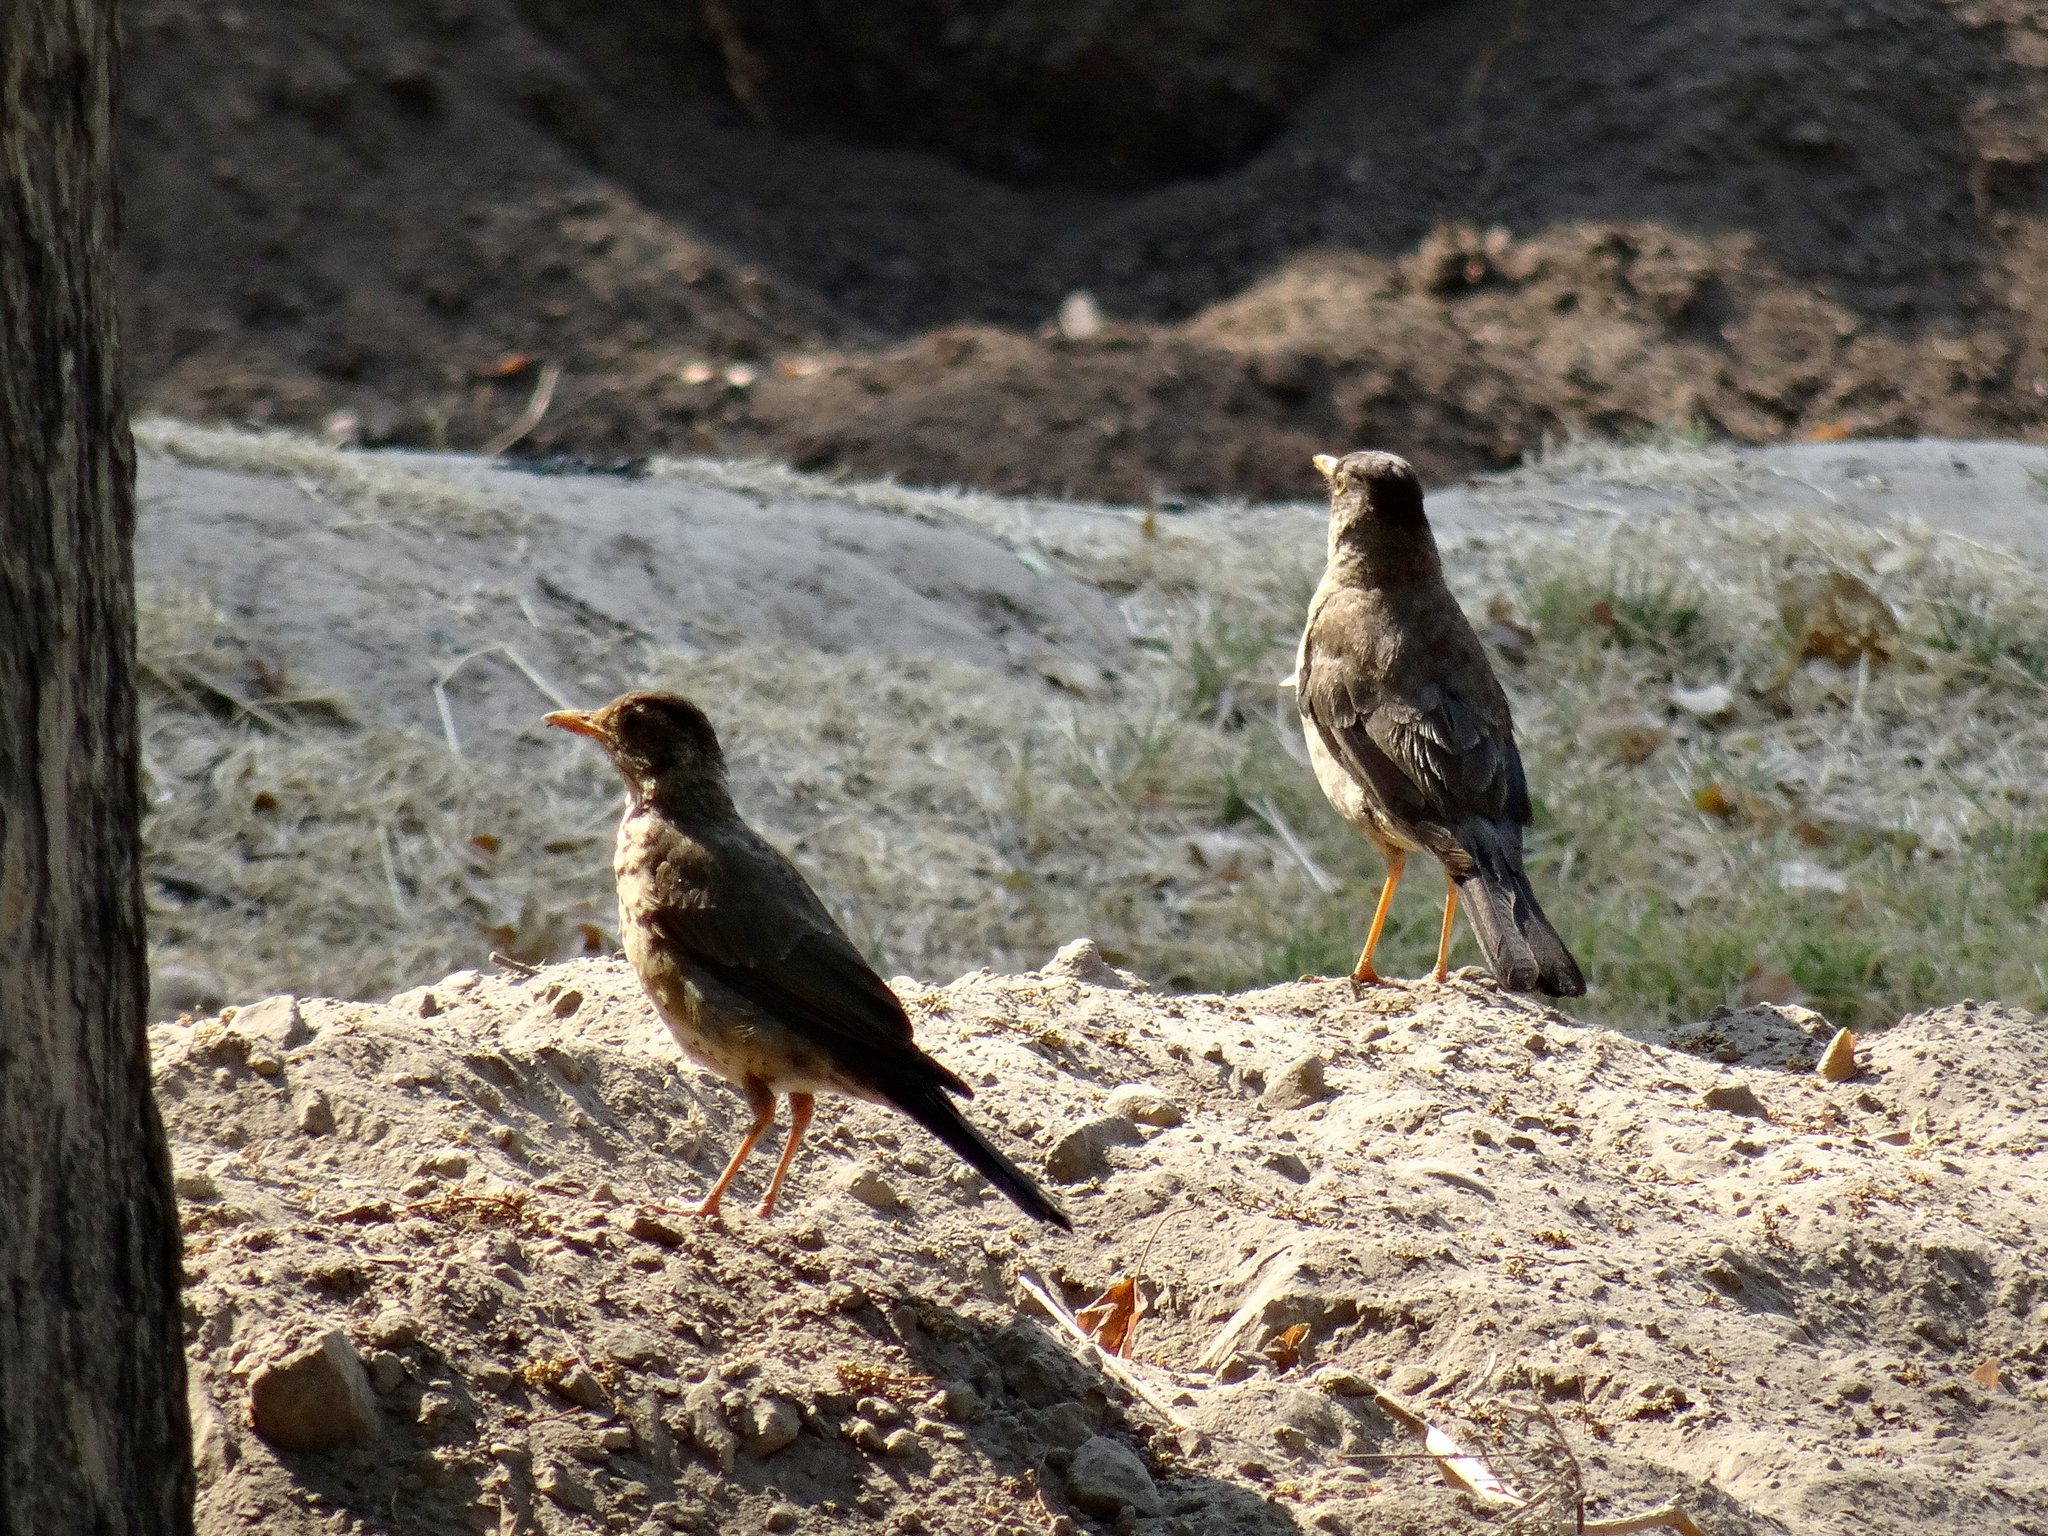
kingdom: Animalia
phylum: Chordata
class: Aves
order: Passeriformes
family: Turdidae
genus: Turdus
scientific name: Turdus falcklandii
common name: Austral thrush
